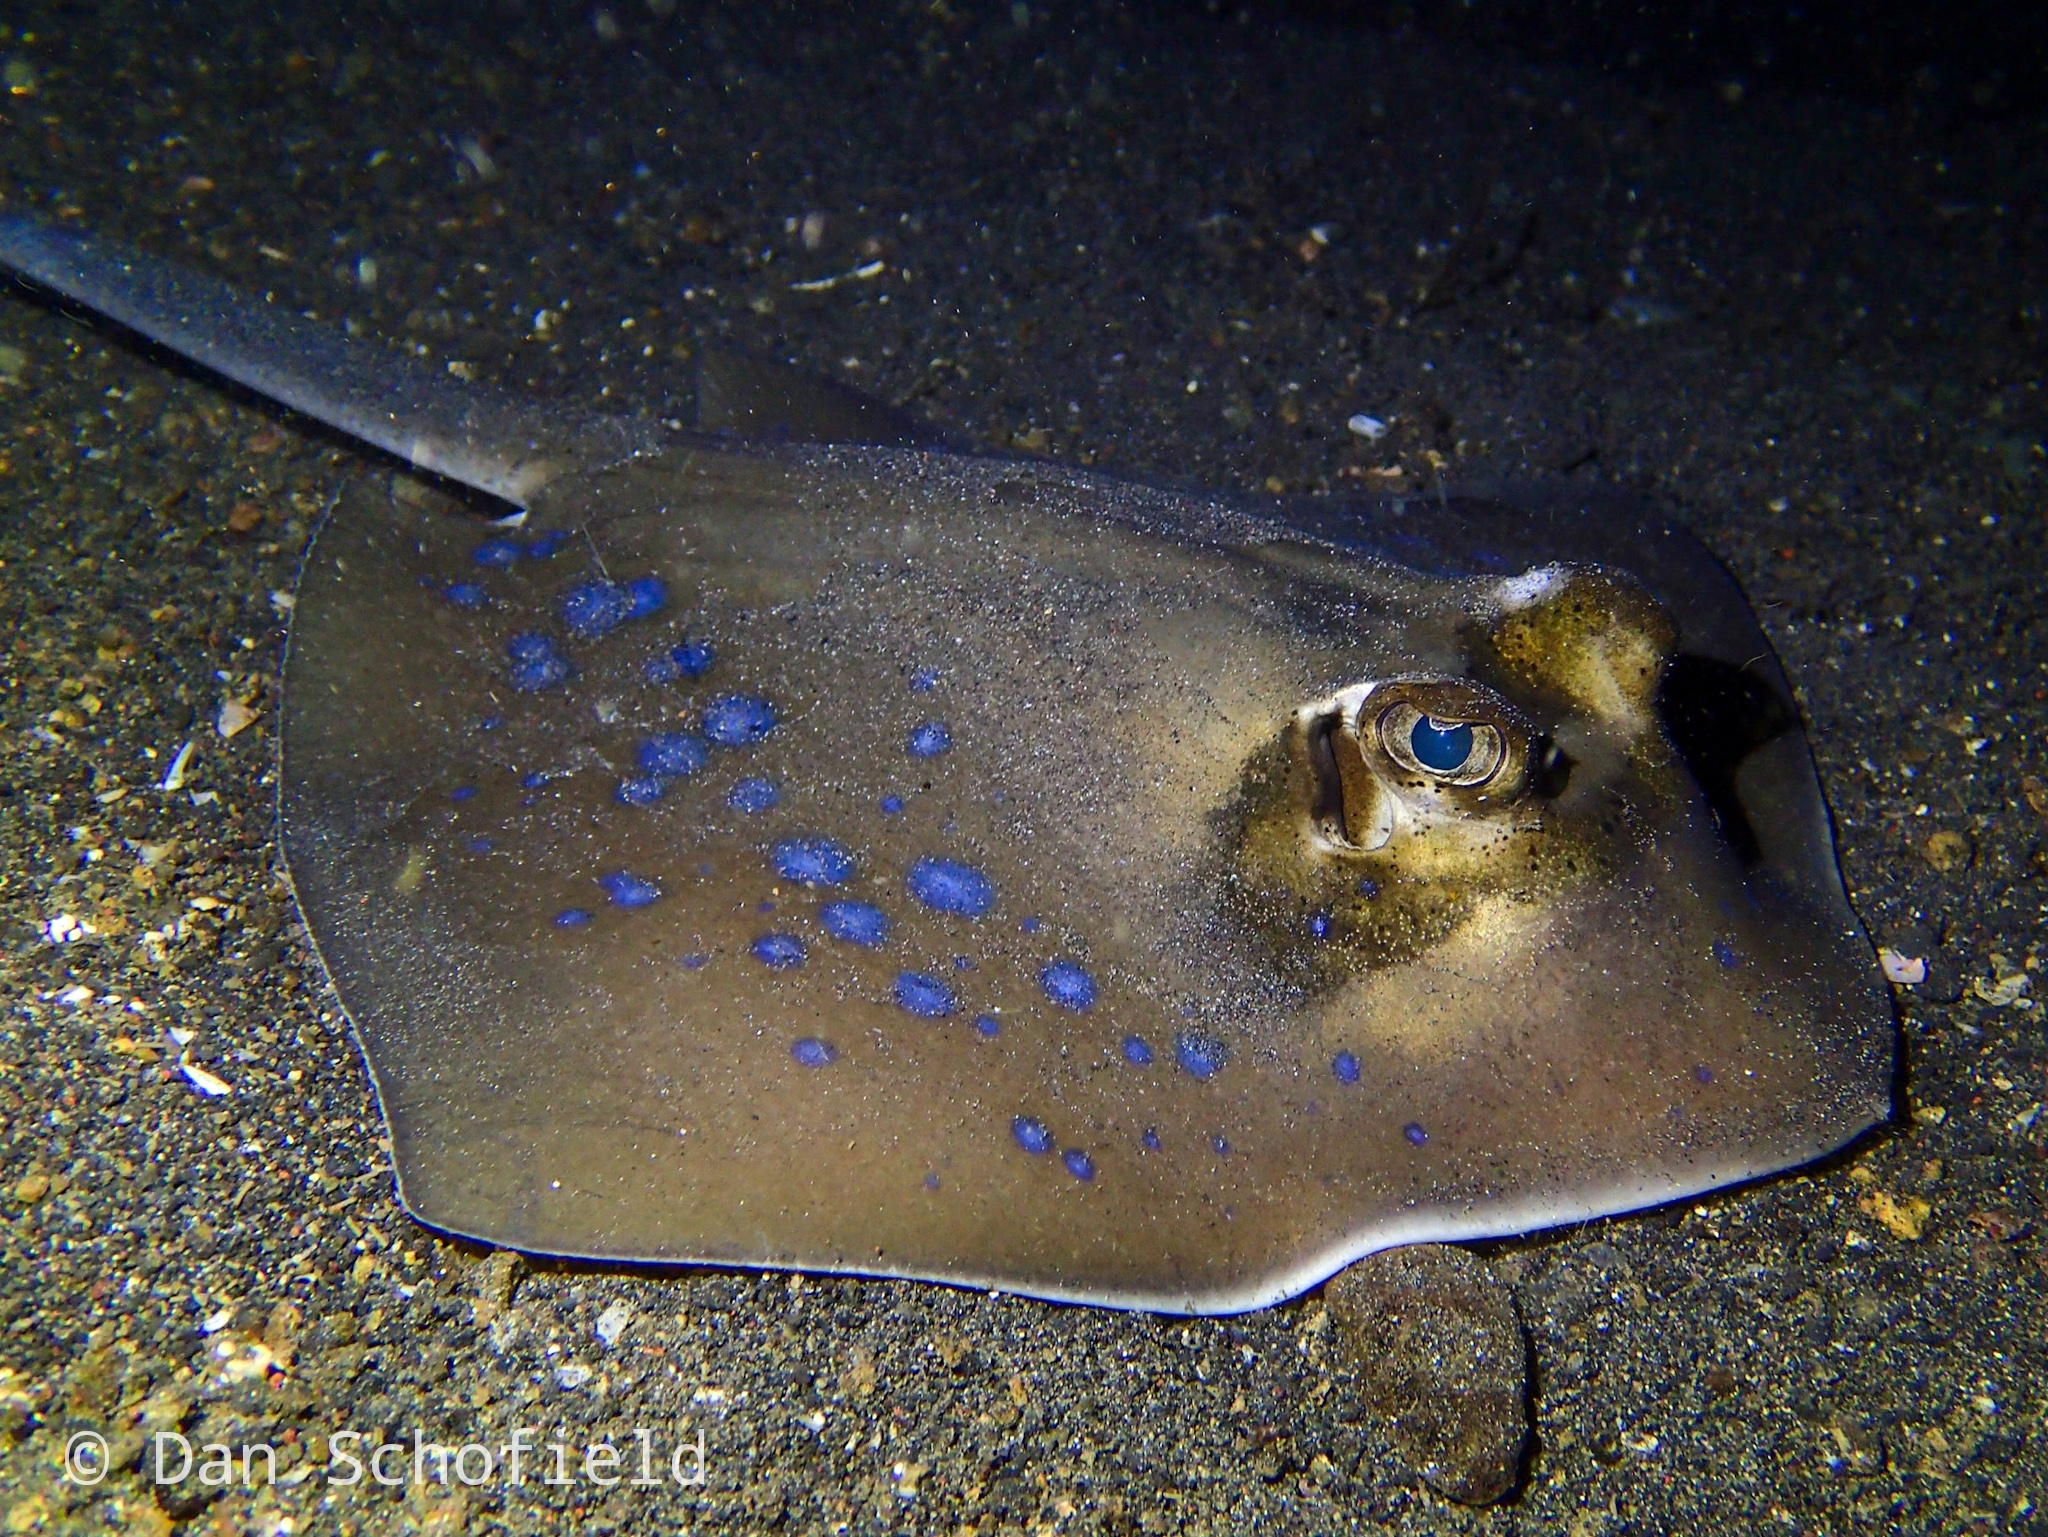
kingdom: Animalia
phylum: Chordata
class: Elasmobranchii
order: Myliobatiformes
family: Dasyatidae
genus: Neotrygon
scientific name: Neotrygon orientale
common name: Oriental bluespotted maskray
